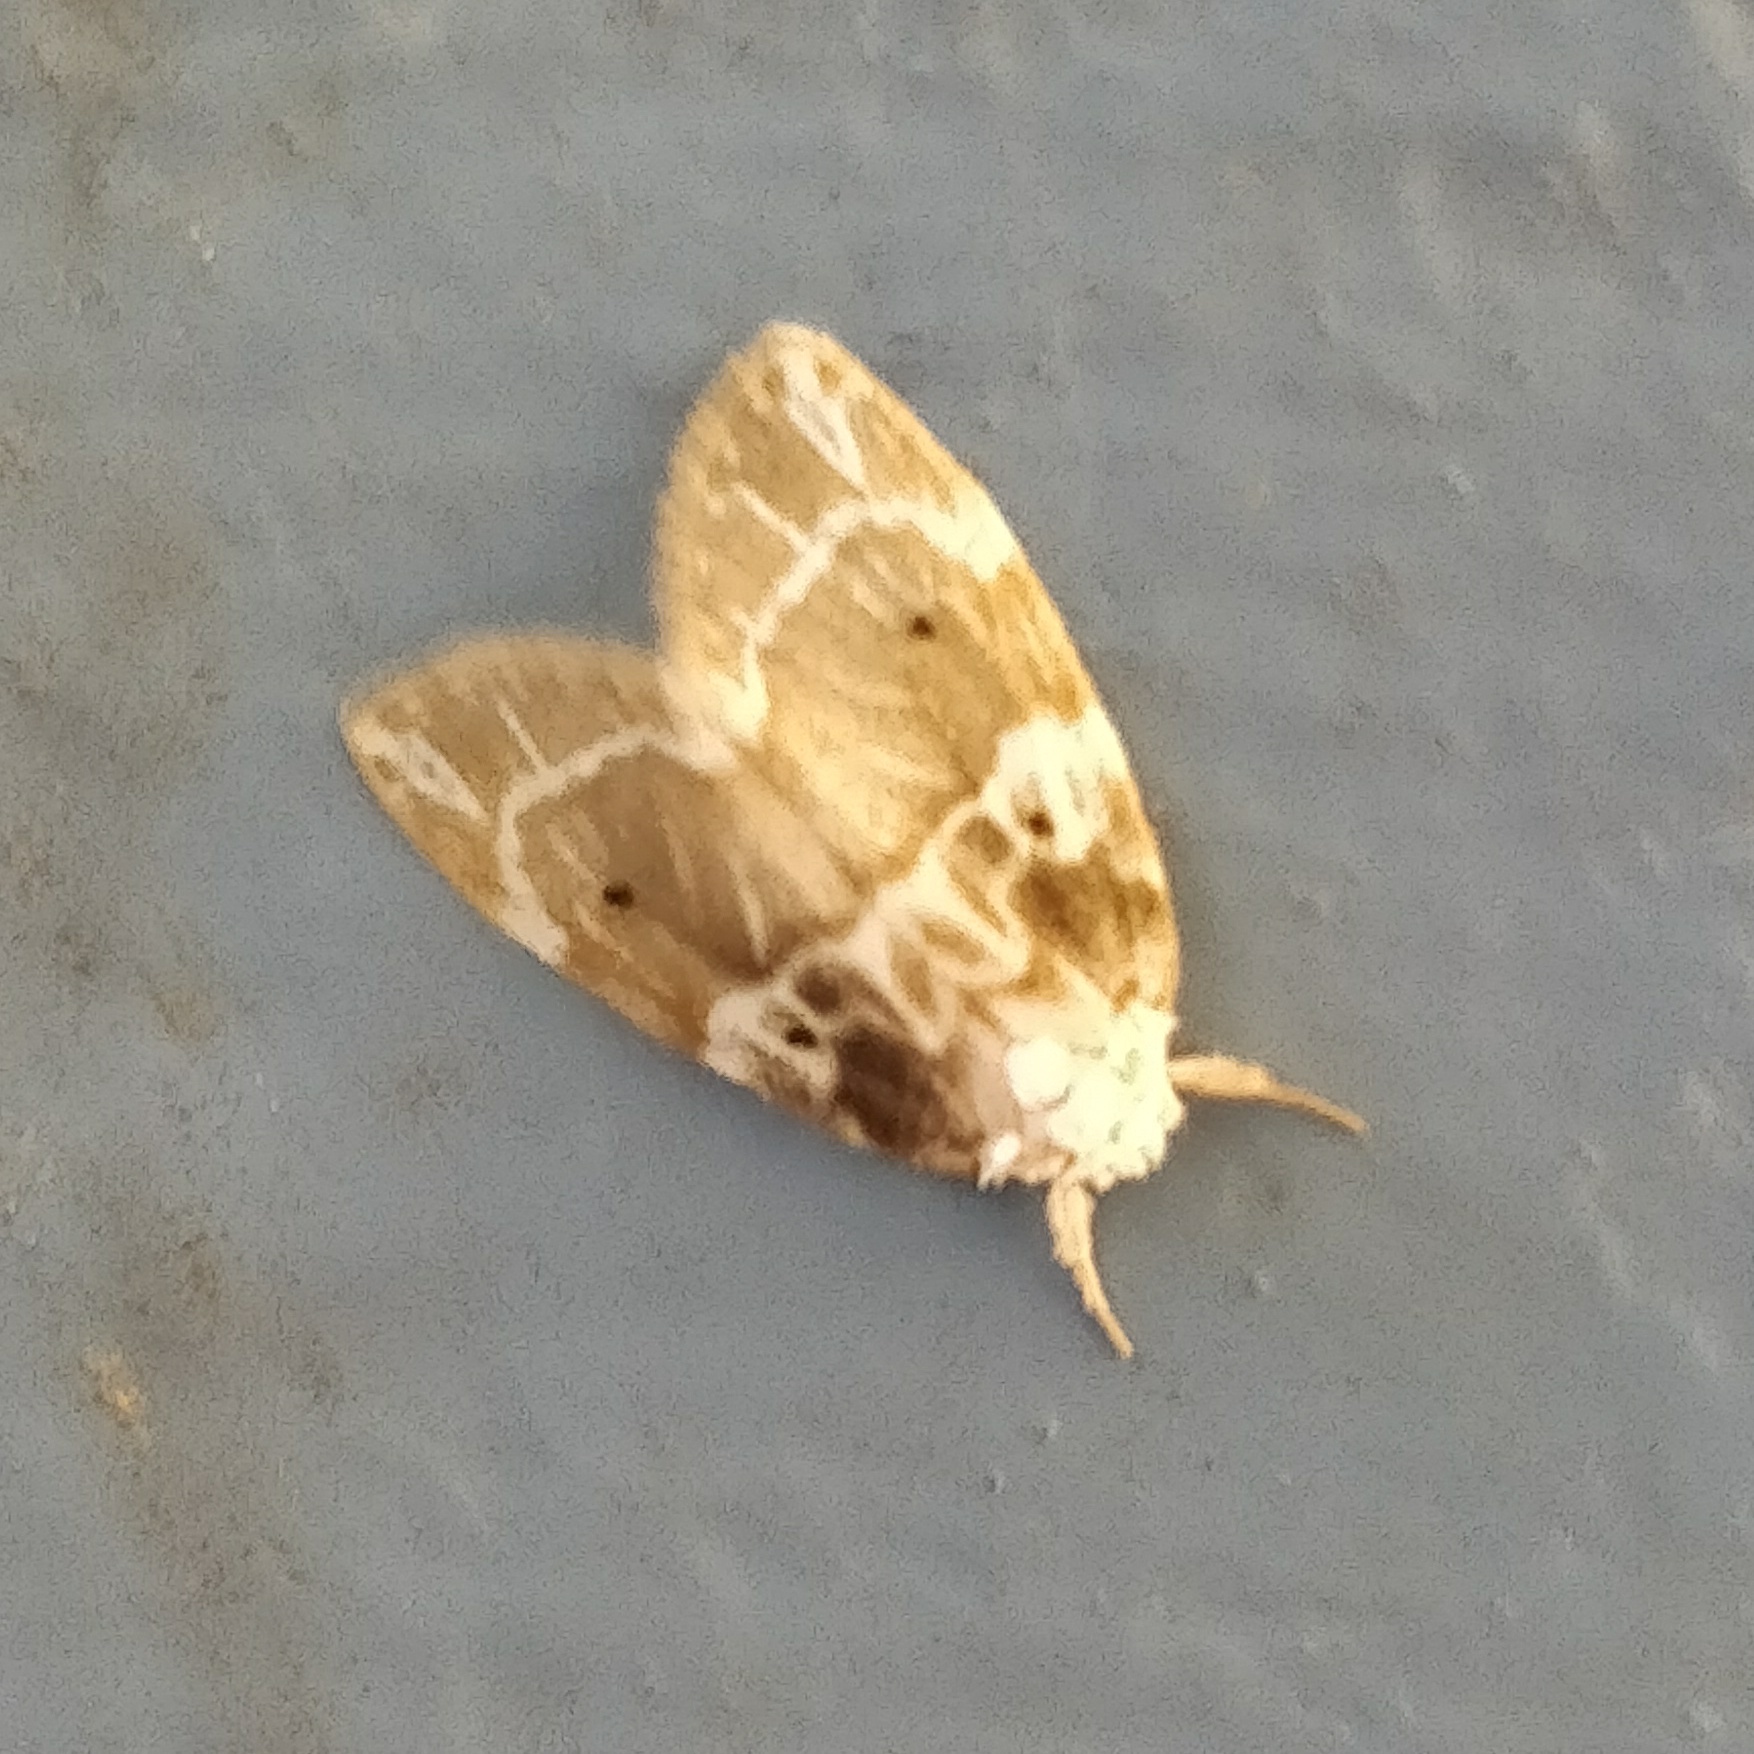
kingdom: Animalia
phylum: Arthropoda
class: Insecta
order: Lepidoptera
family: Erebidae
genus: Schistophleps
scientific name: Schistophleps pentoveinlata
